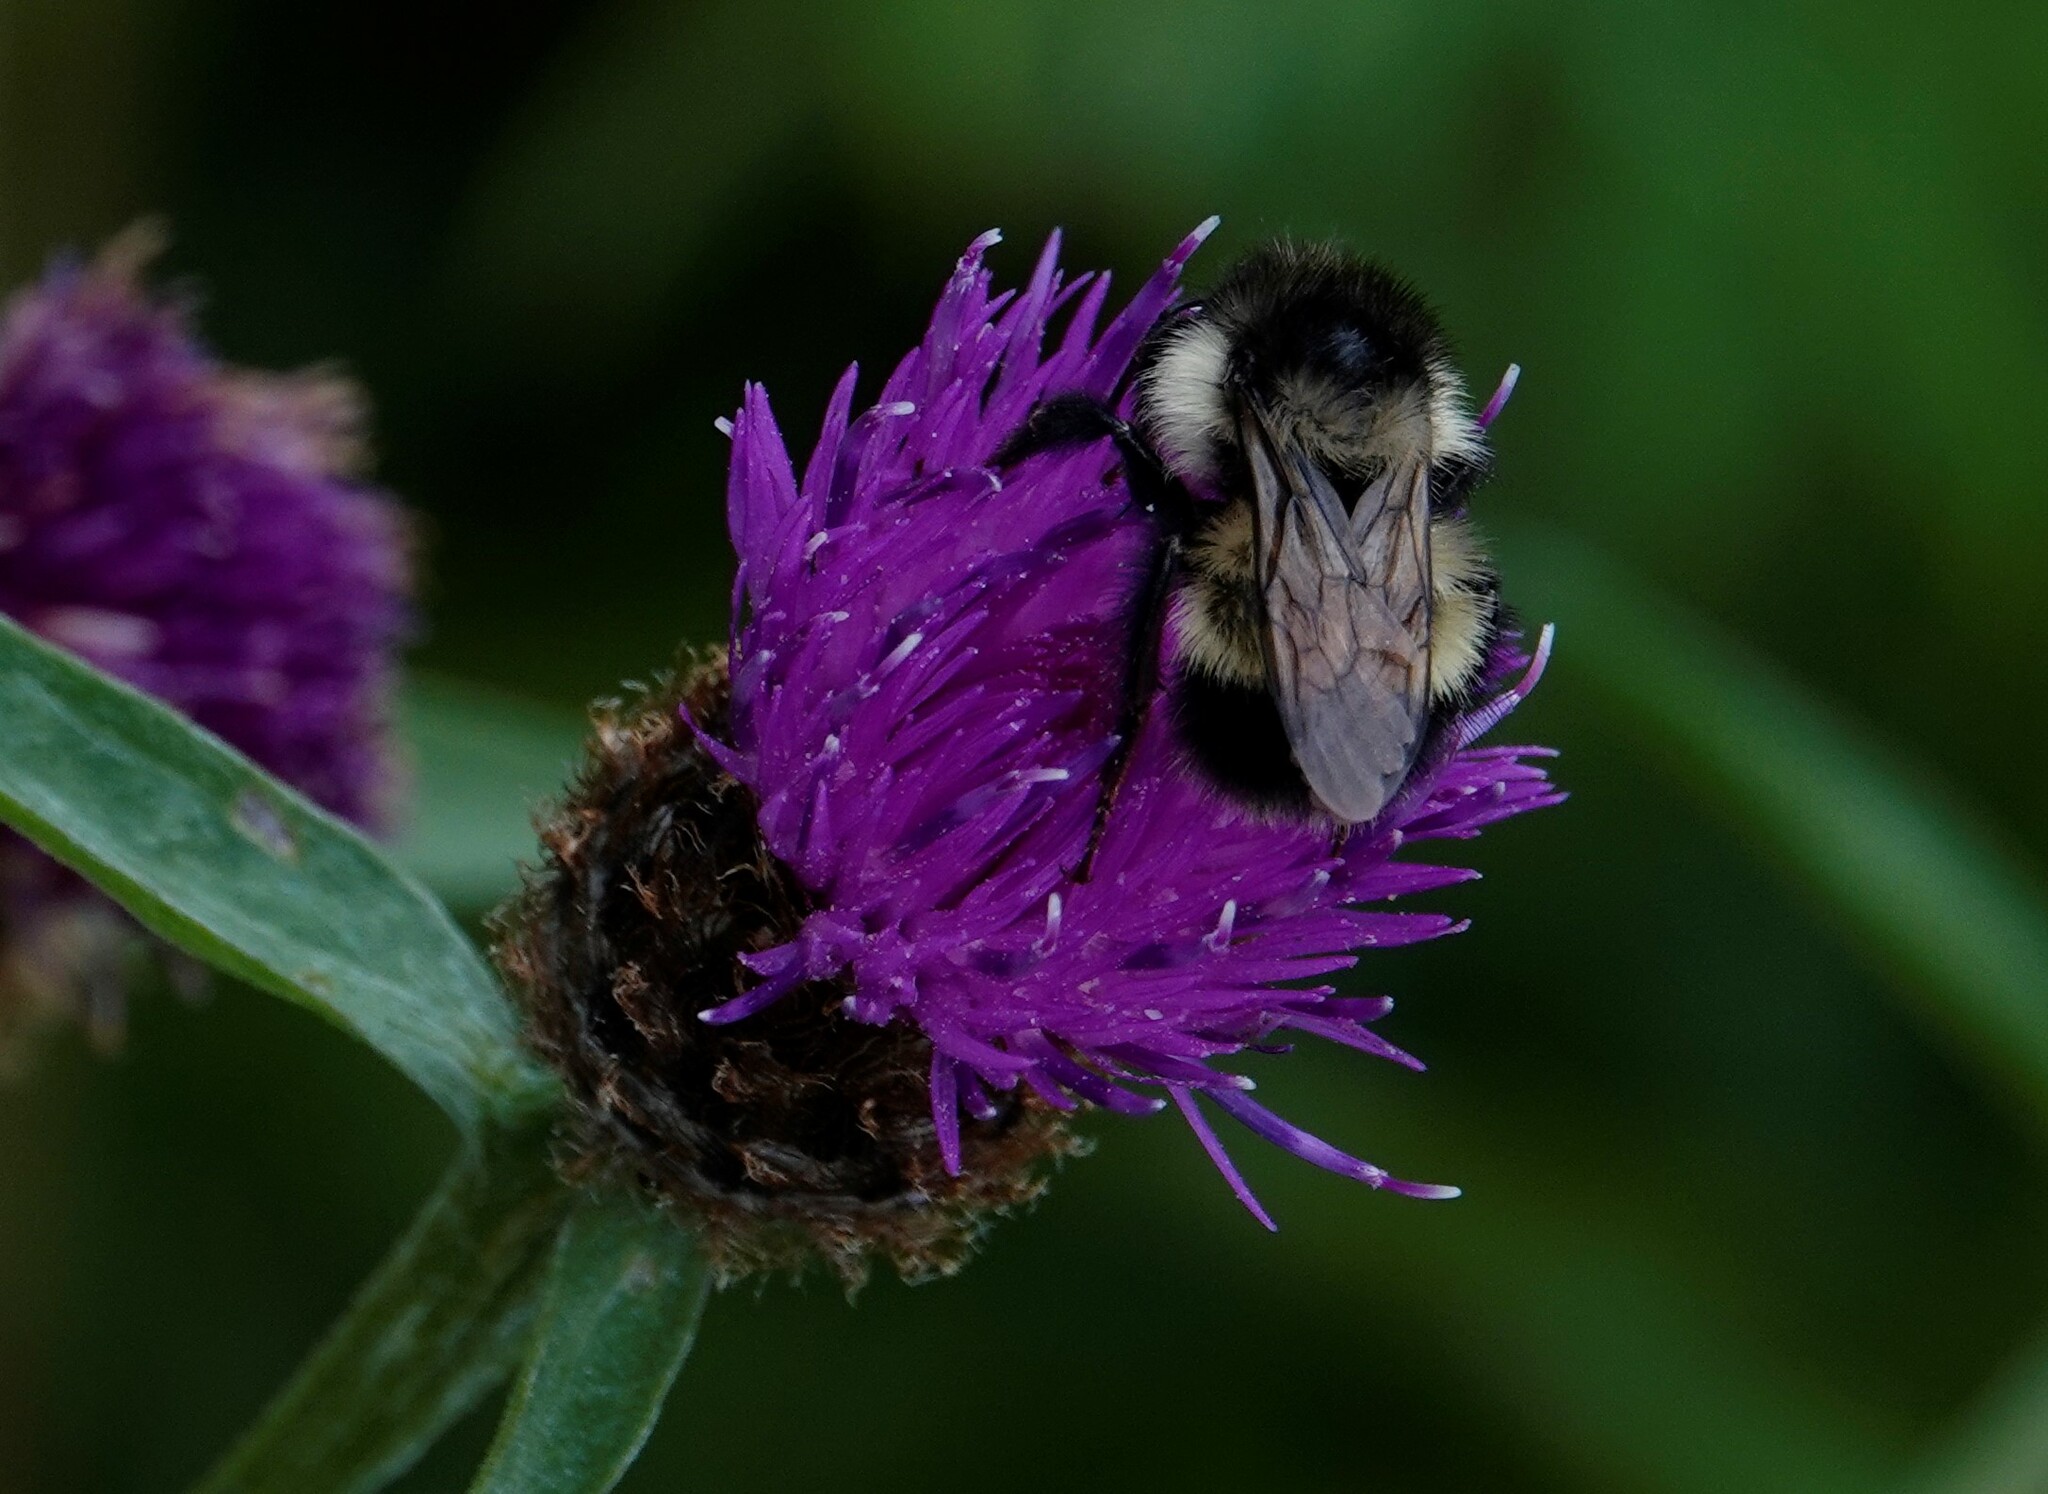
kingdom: Animalia
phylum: Arthropoda
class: Insecta
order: Hymenoptera
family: Apidae
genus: Bombus
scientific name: Bombus vagans
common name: Half-black bumble bee
